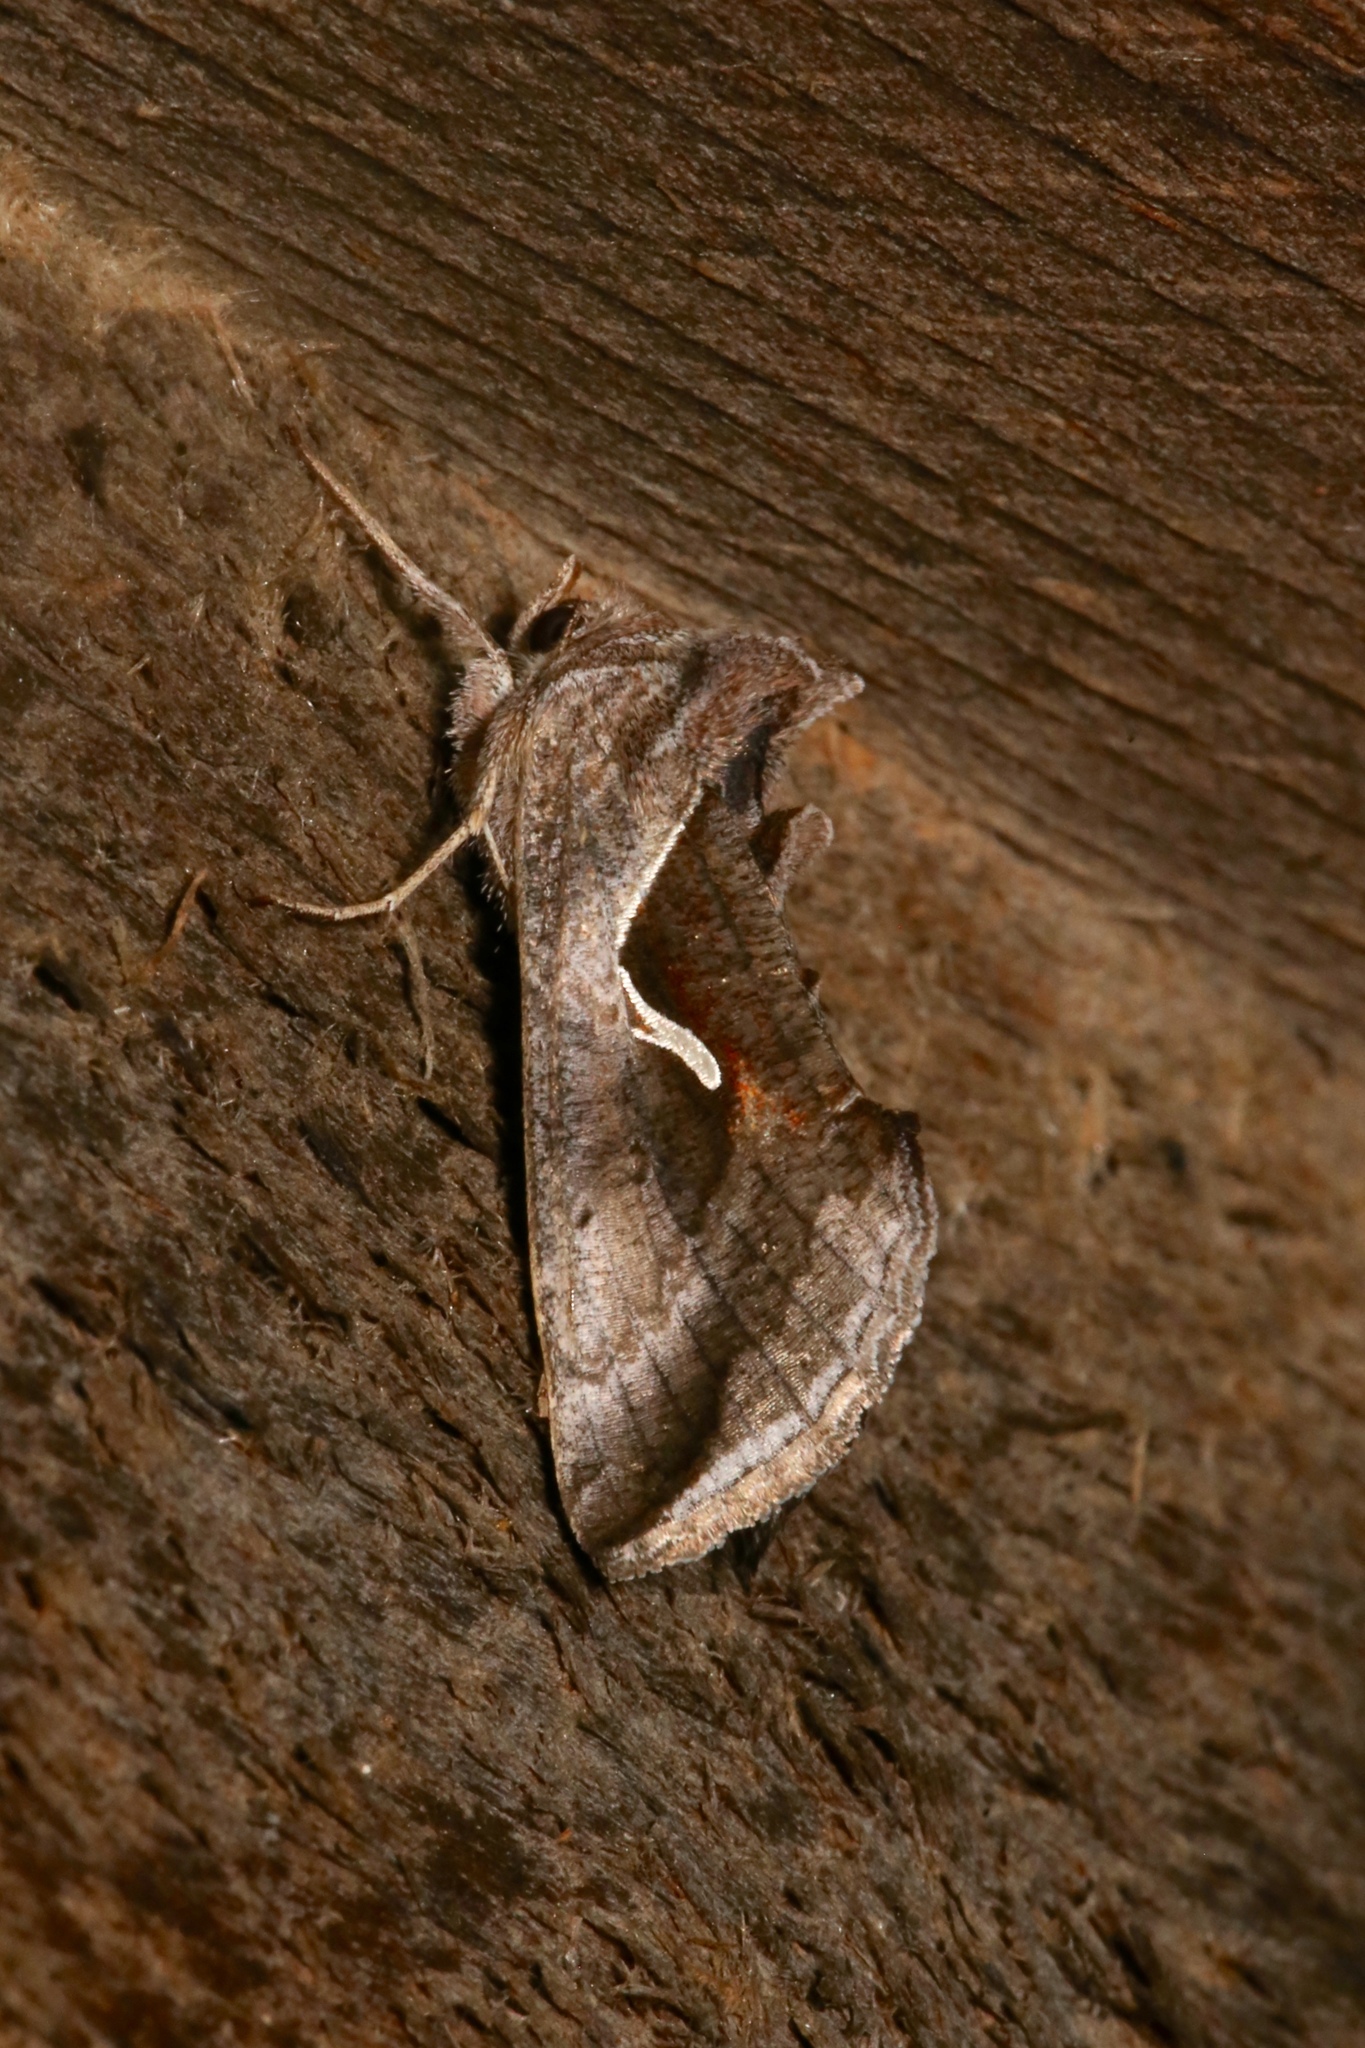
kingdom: Animalia
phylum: Arthropoda
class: Insecta
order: Lepidoptera
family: Noctuidae
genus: Anagrapha
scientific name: Anagrapha falcifera
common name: Celery looper
